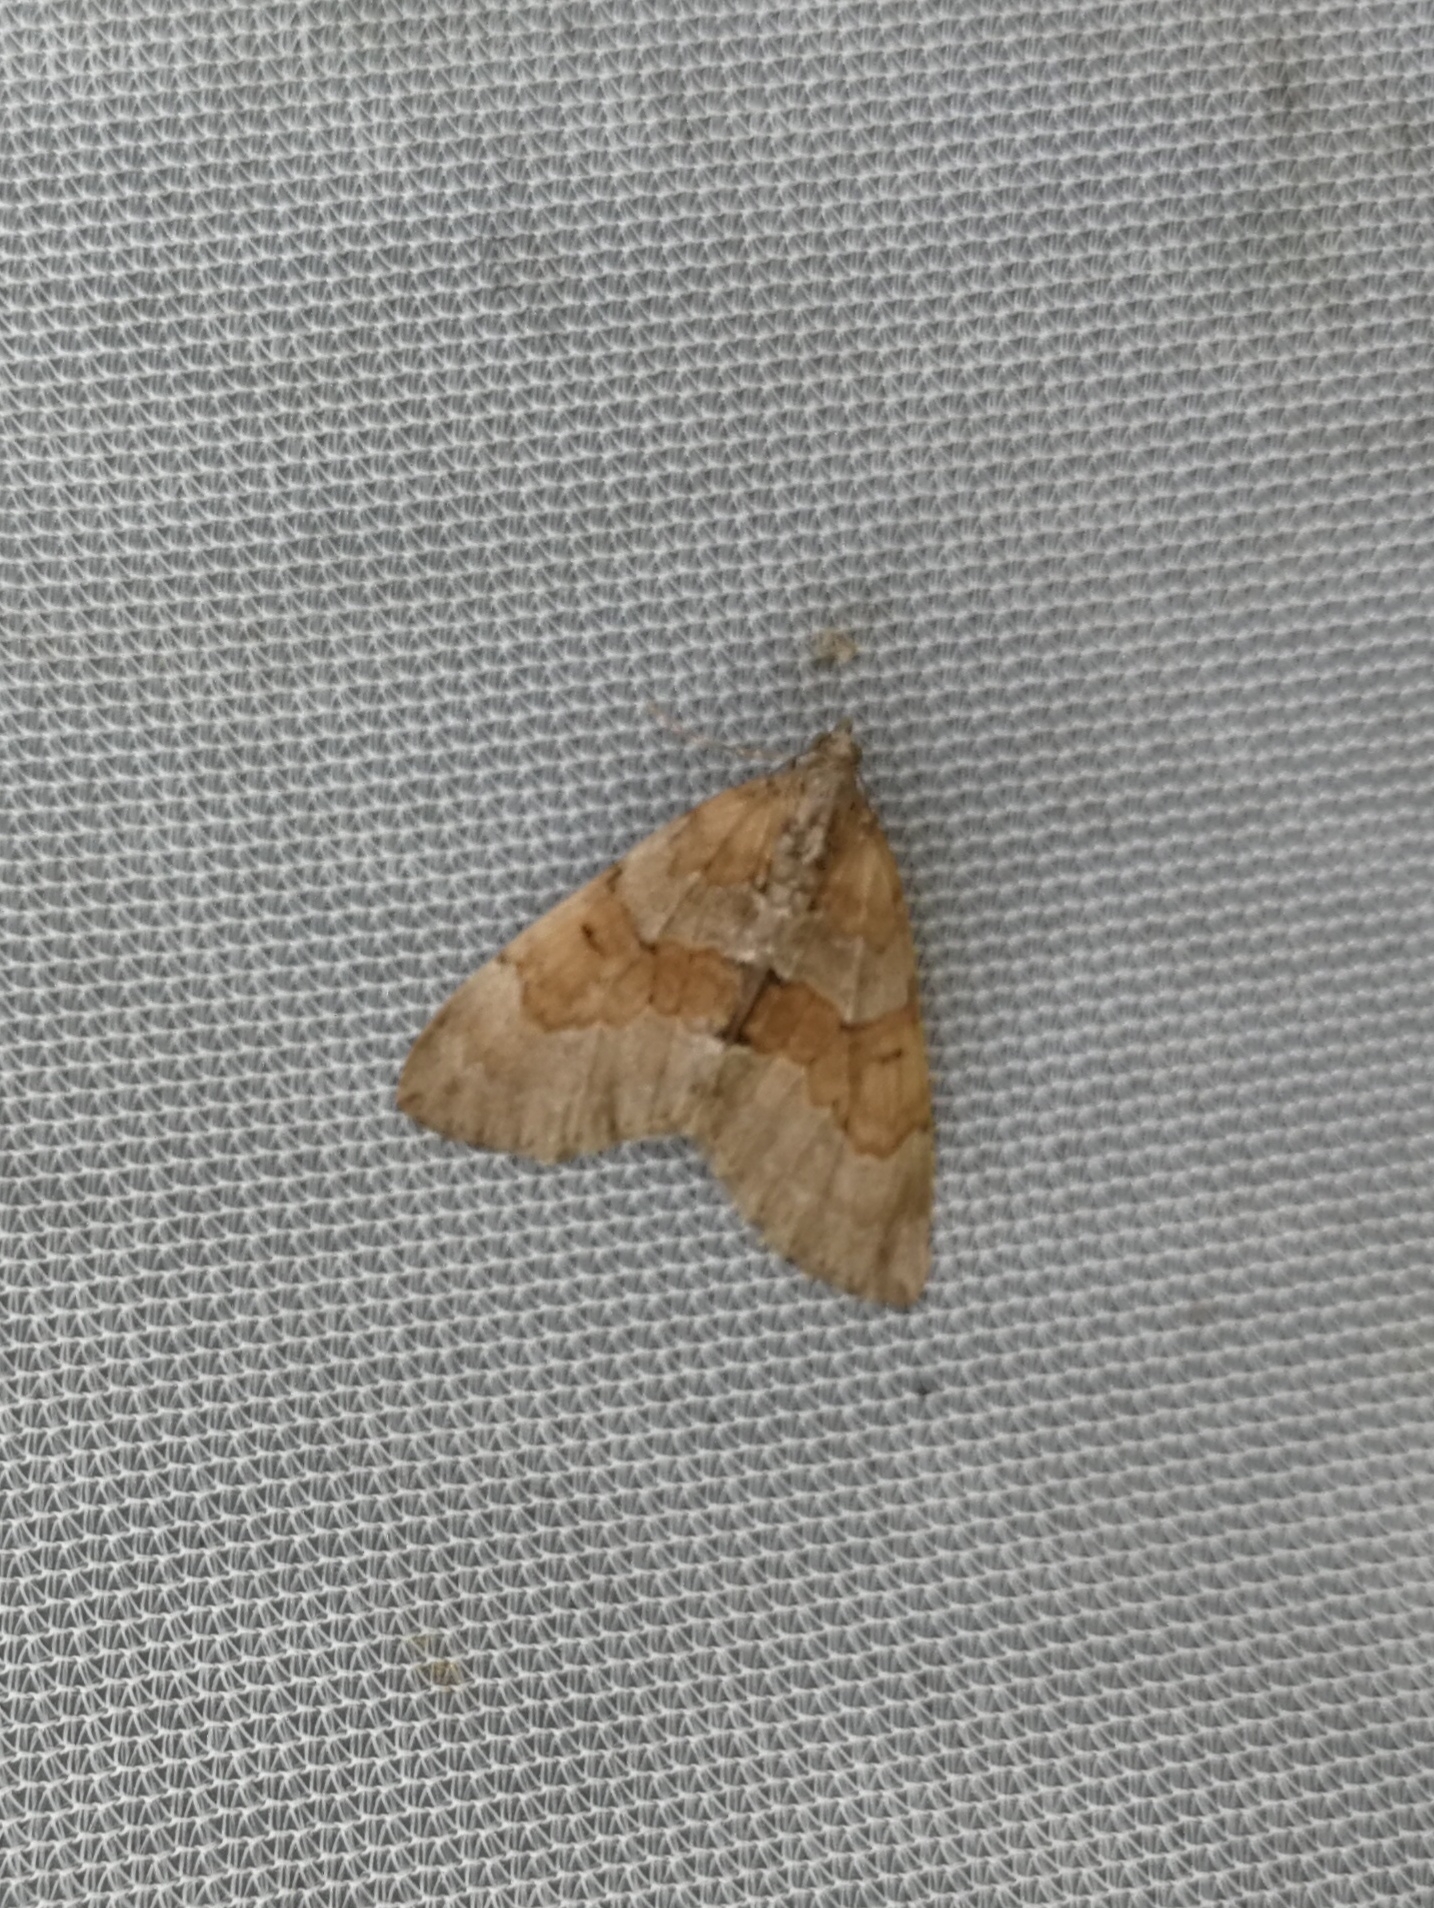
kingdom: Animalia
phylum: Arthropoda
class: Insecta
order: Lepidoptera
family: Geometridae
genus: Thera
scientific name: Thera obeliscata
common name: Grey pine carpet
